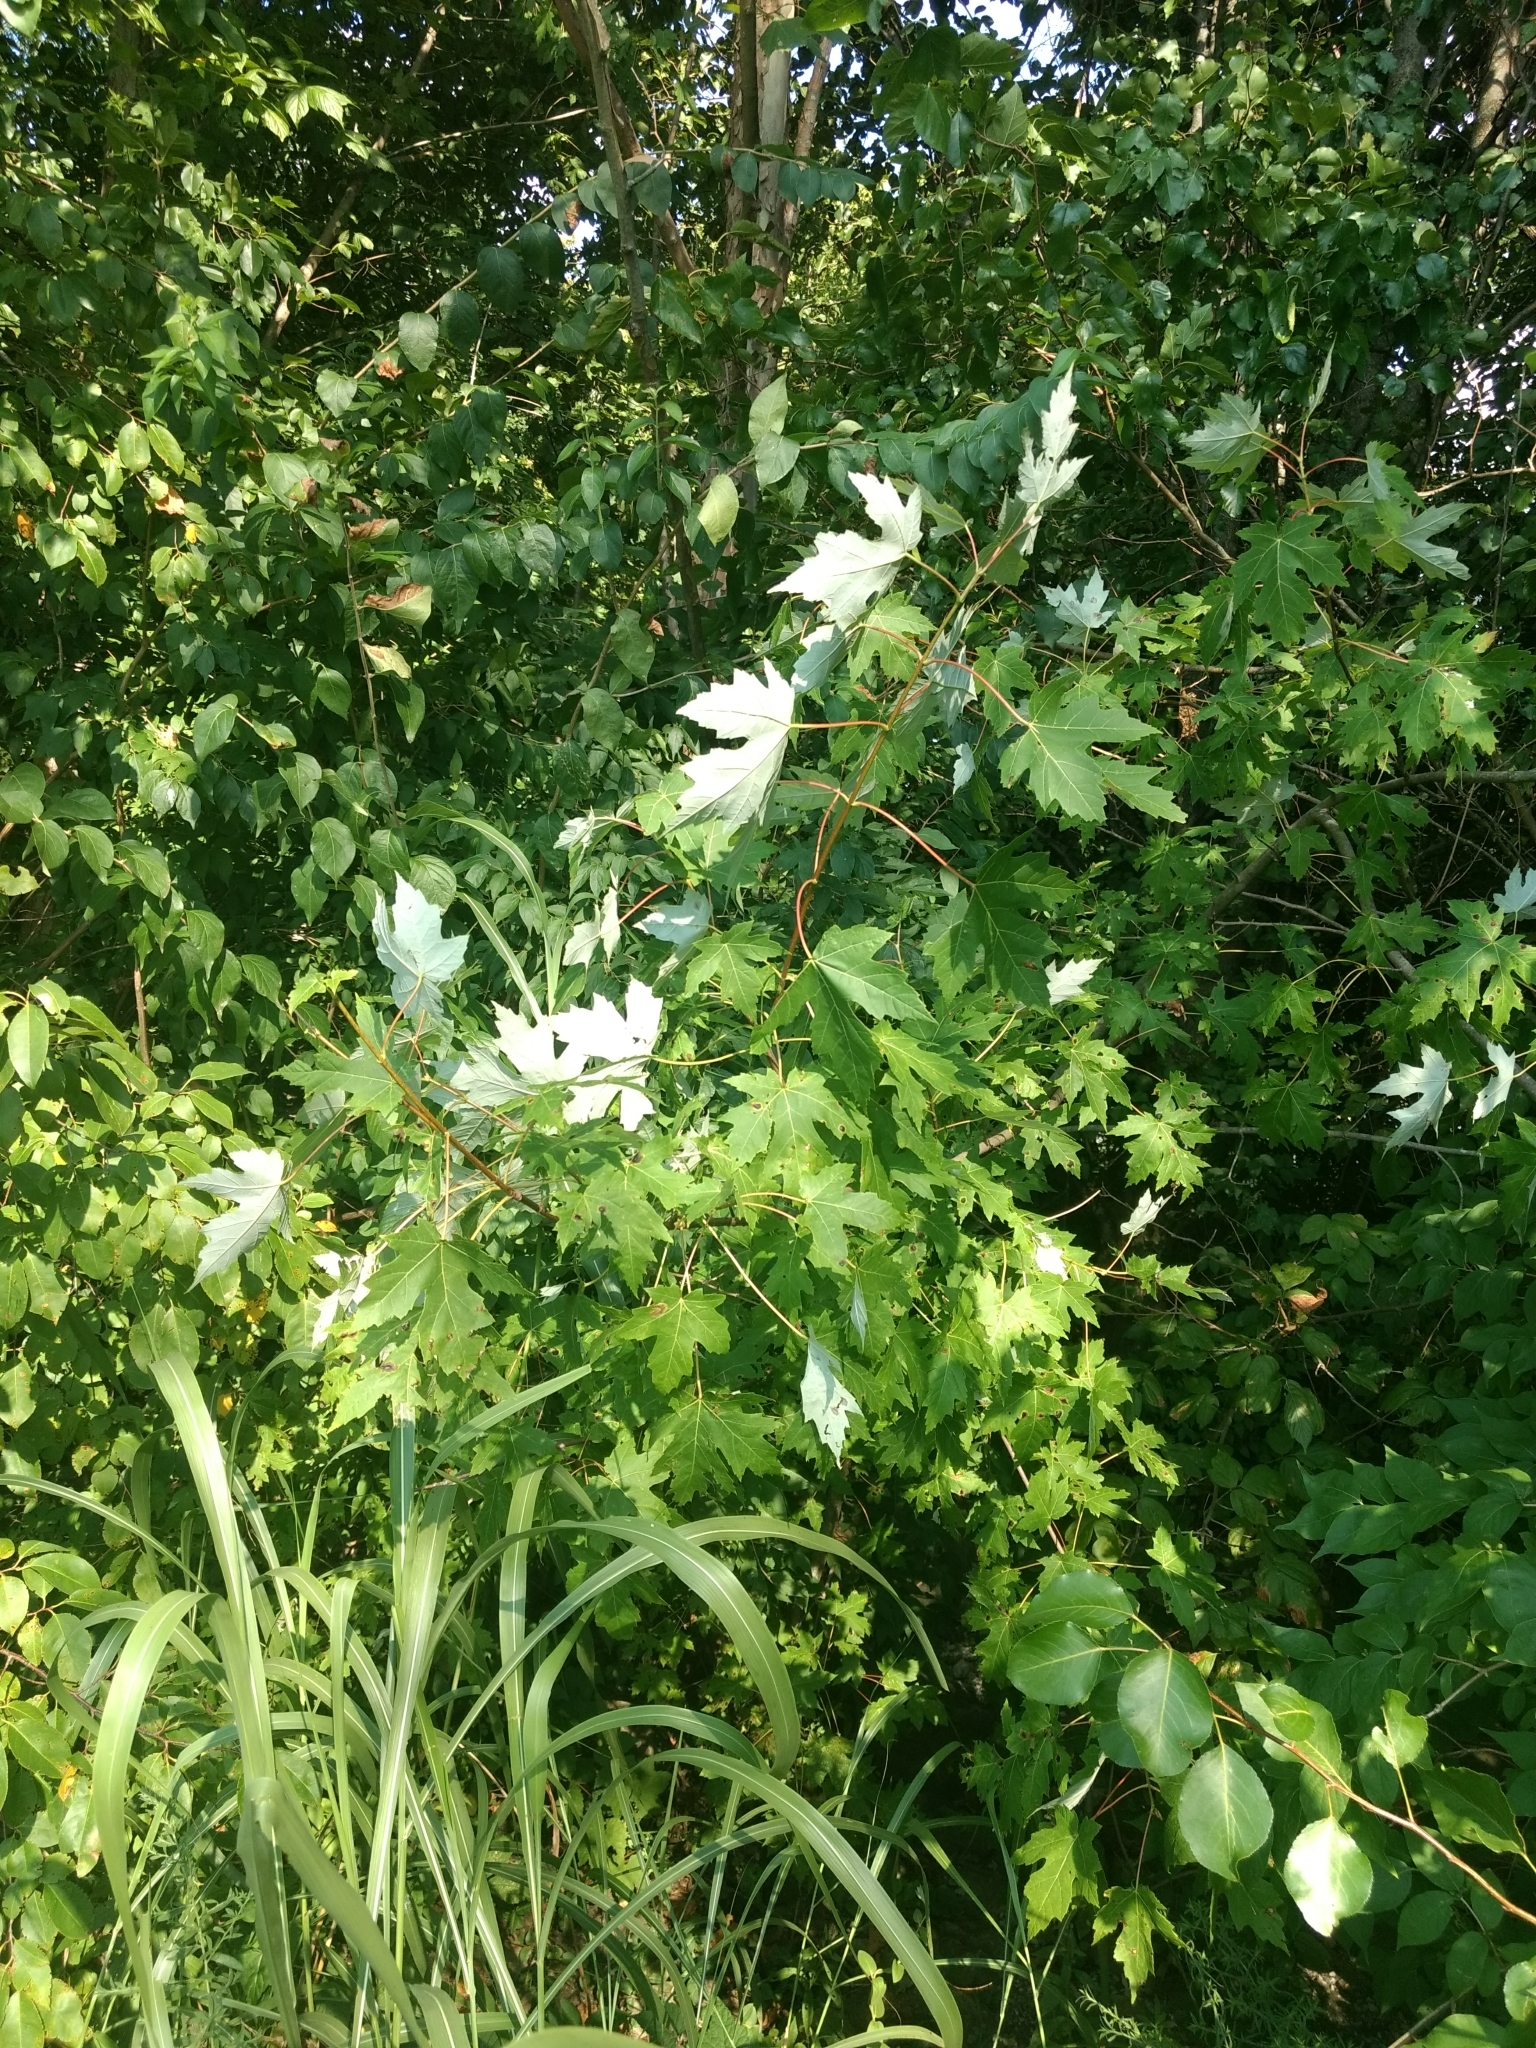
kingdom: Plantae
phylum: Tracheophyta
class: Magnoliopsida
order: Sapindales
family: Sapindaceae
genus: Acer
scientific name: Acer saccharinum
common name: Silver maple
